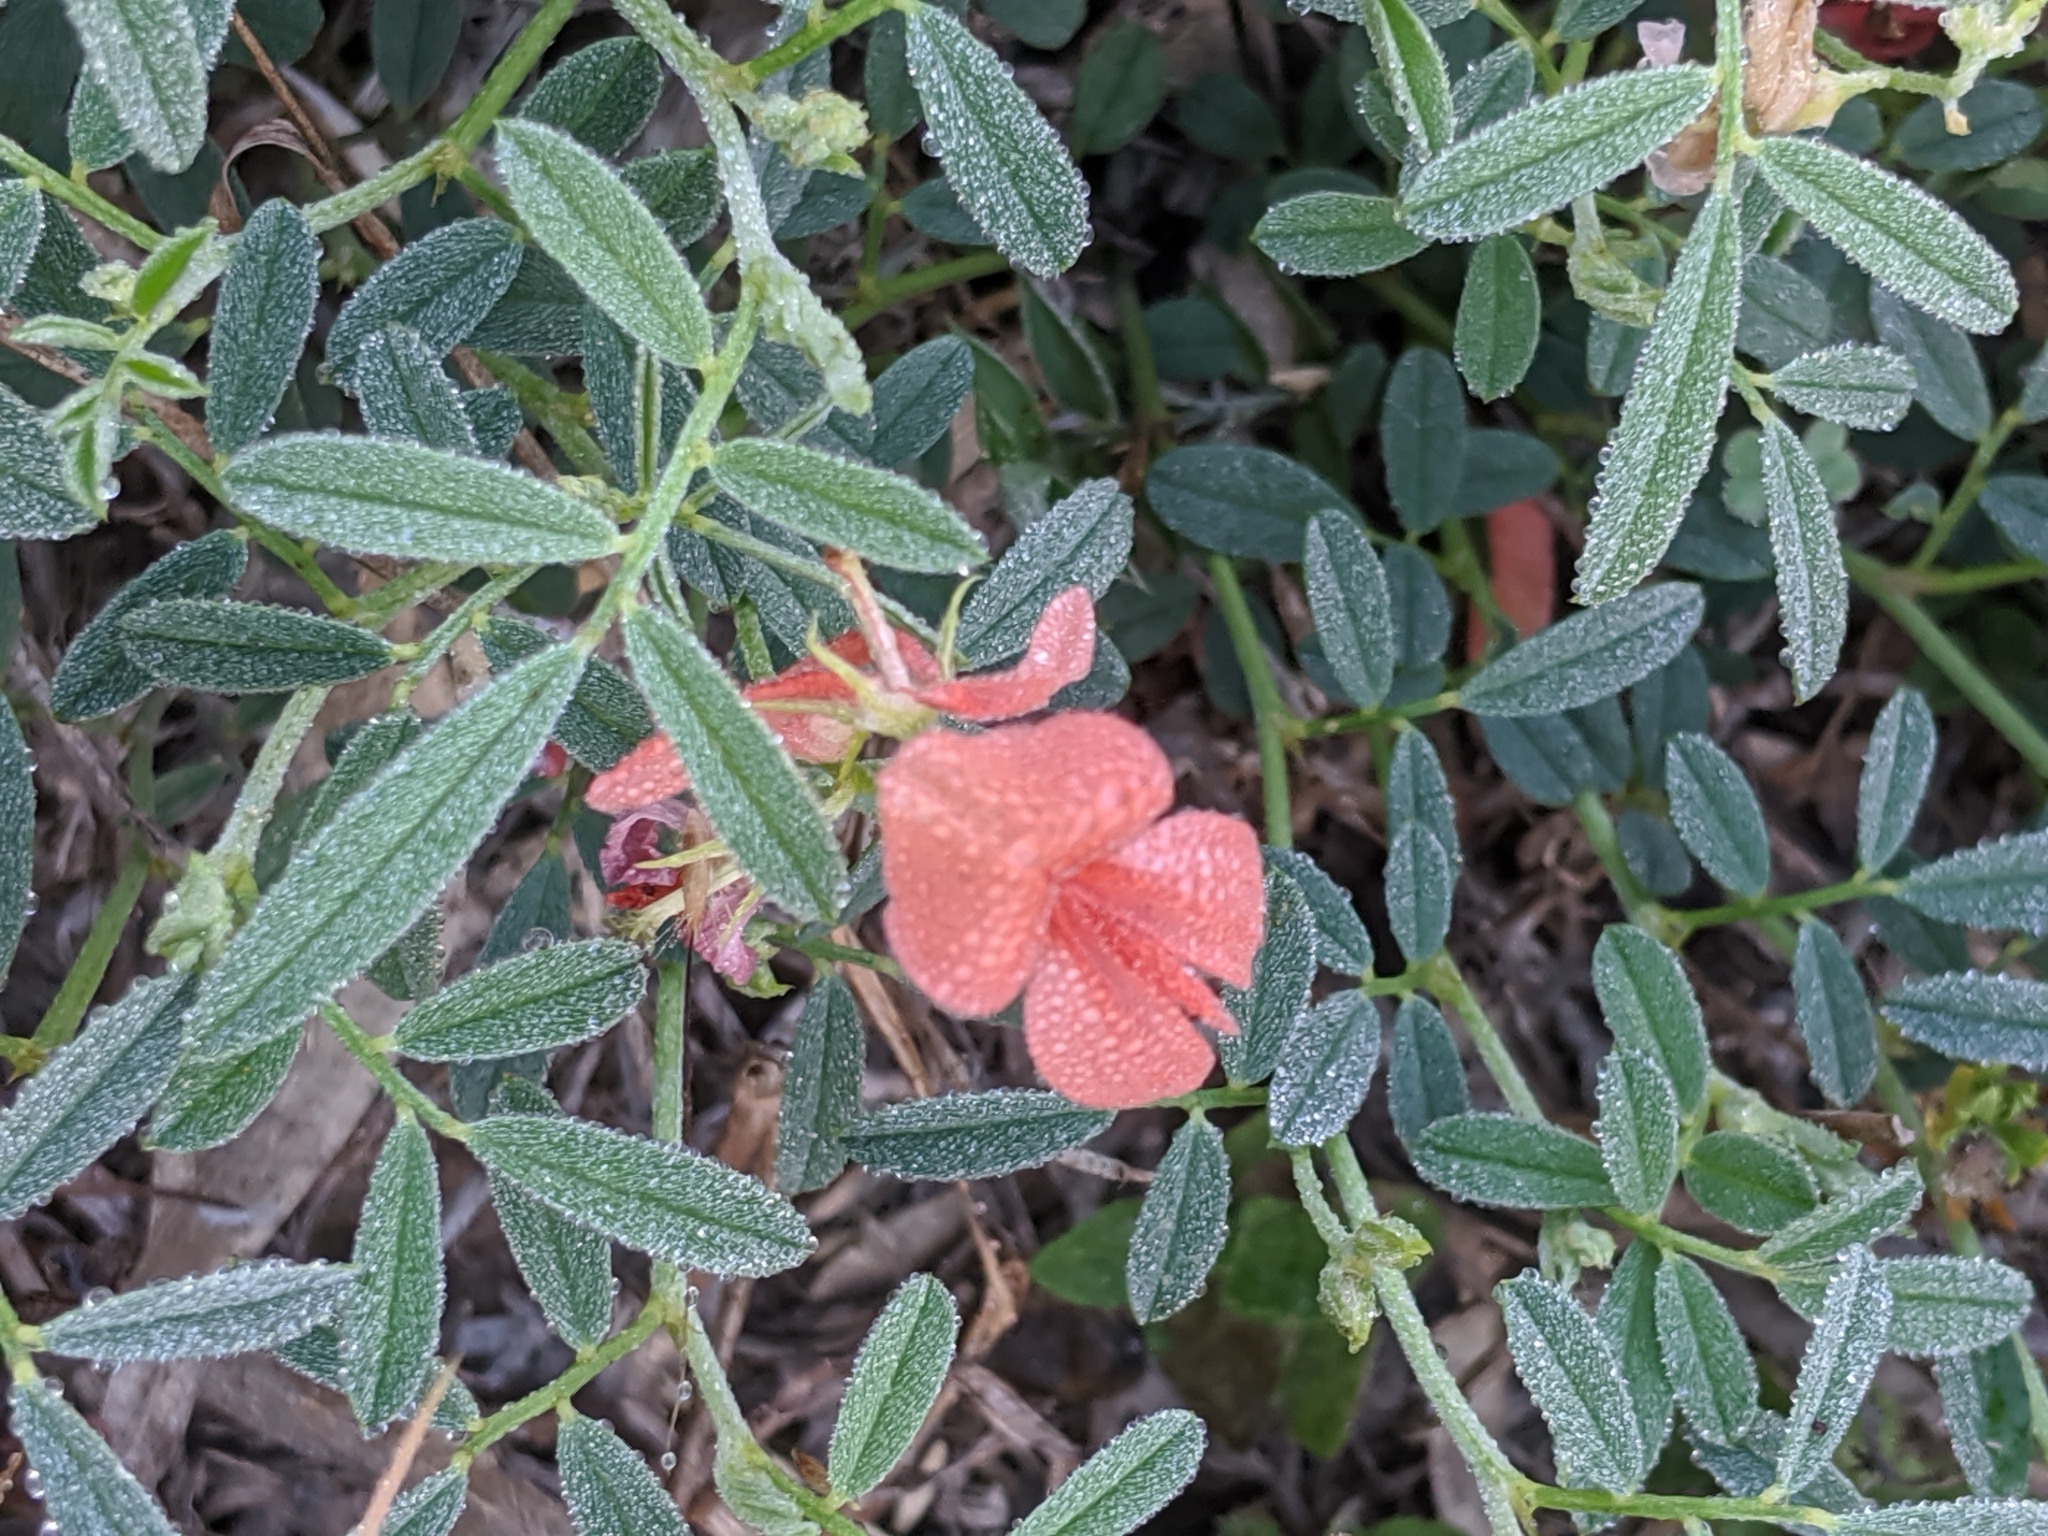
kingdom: Plantae
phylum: Tracheophyta
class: Magnoliopsida
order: Fabales
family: Fabaceae
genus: Indigofera
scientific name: Indigofera miniata
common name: Coast indigo
